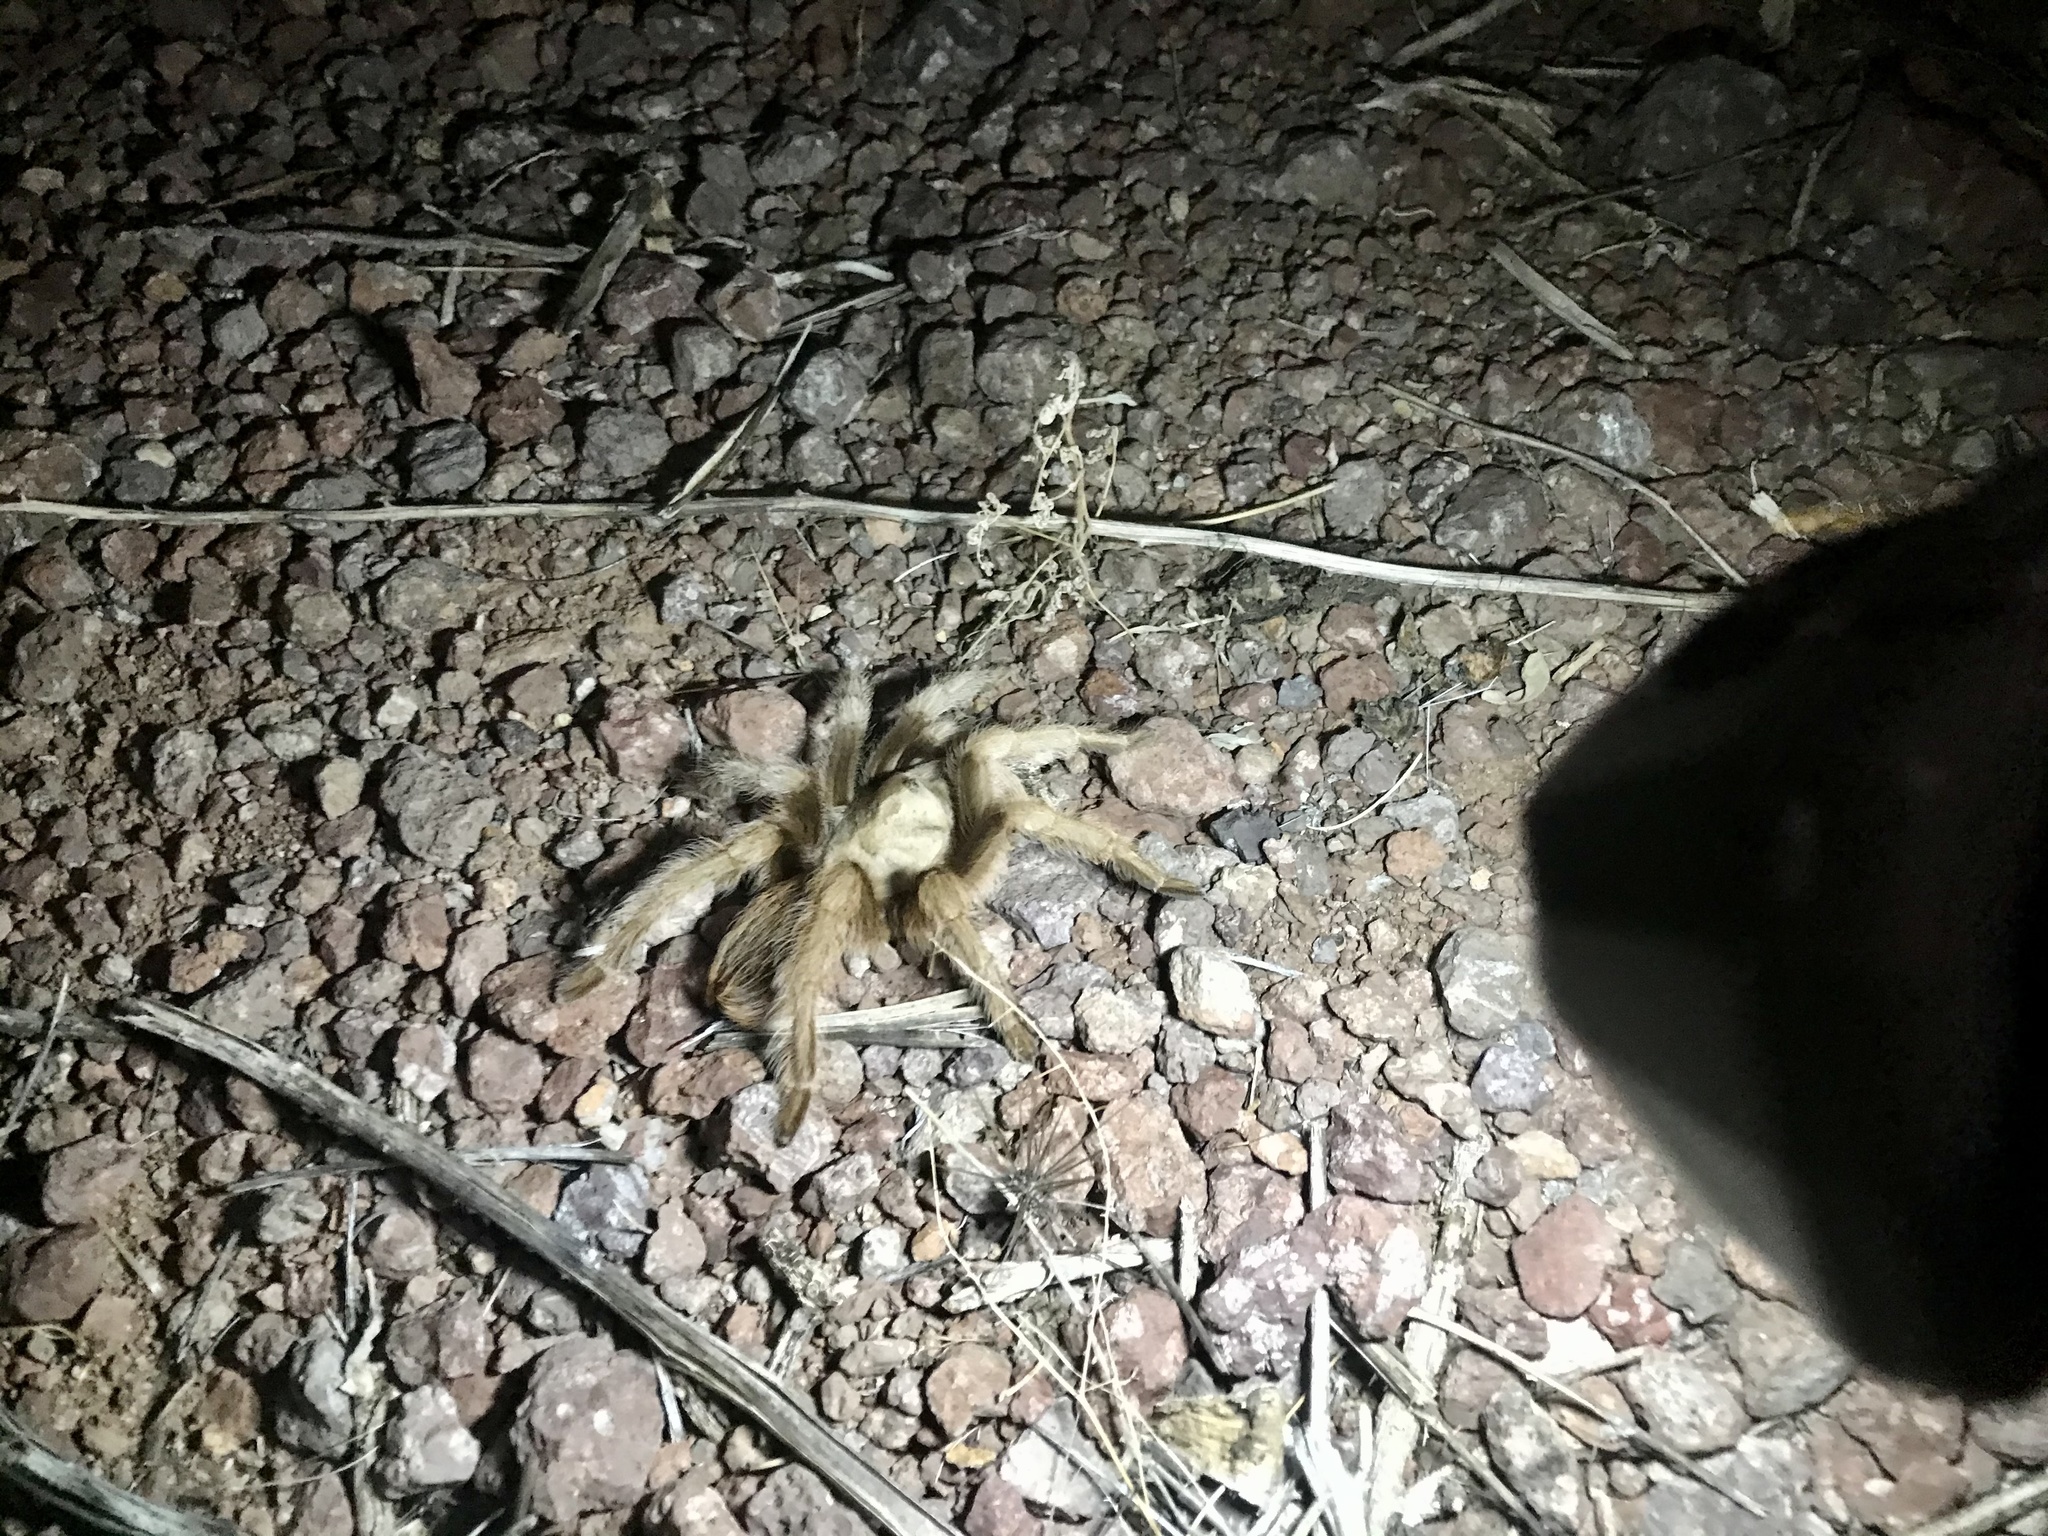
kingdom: Animalia
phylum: Arthropoda
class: Arachnida
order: Araneae
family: Theraphosidae
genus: Aphonopelma
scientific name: Aphonopelma chalcodes
